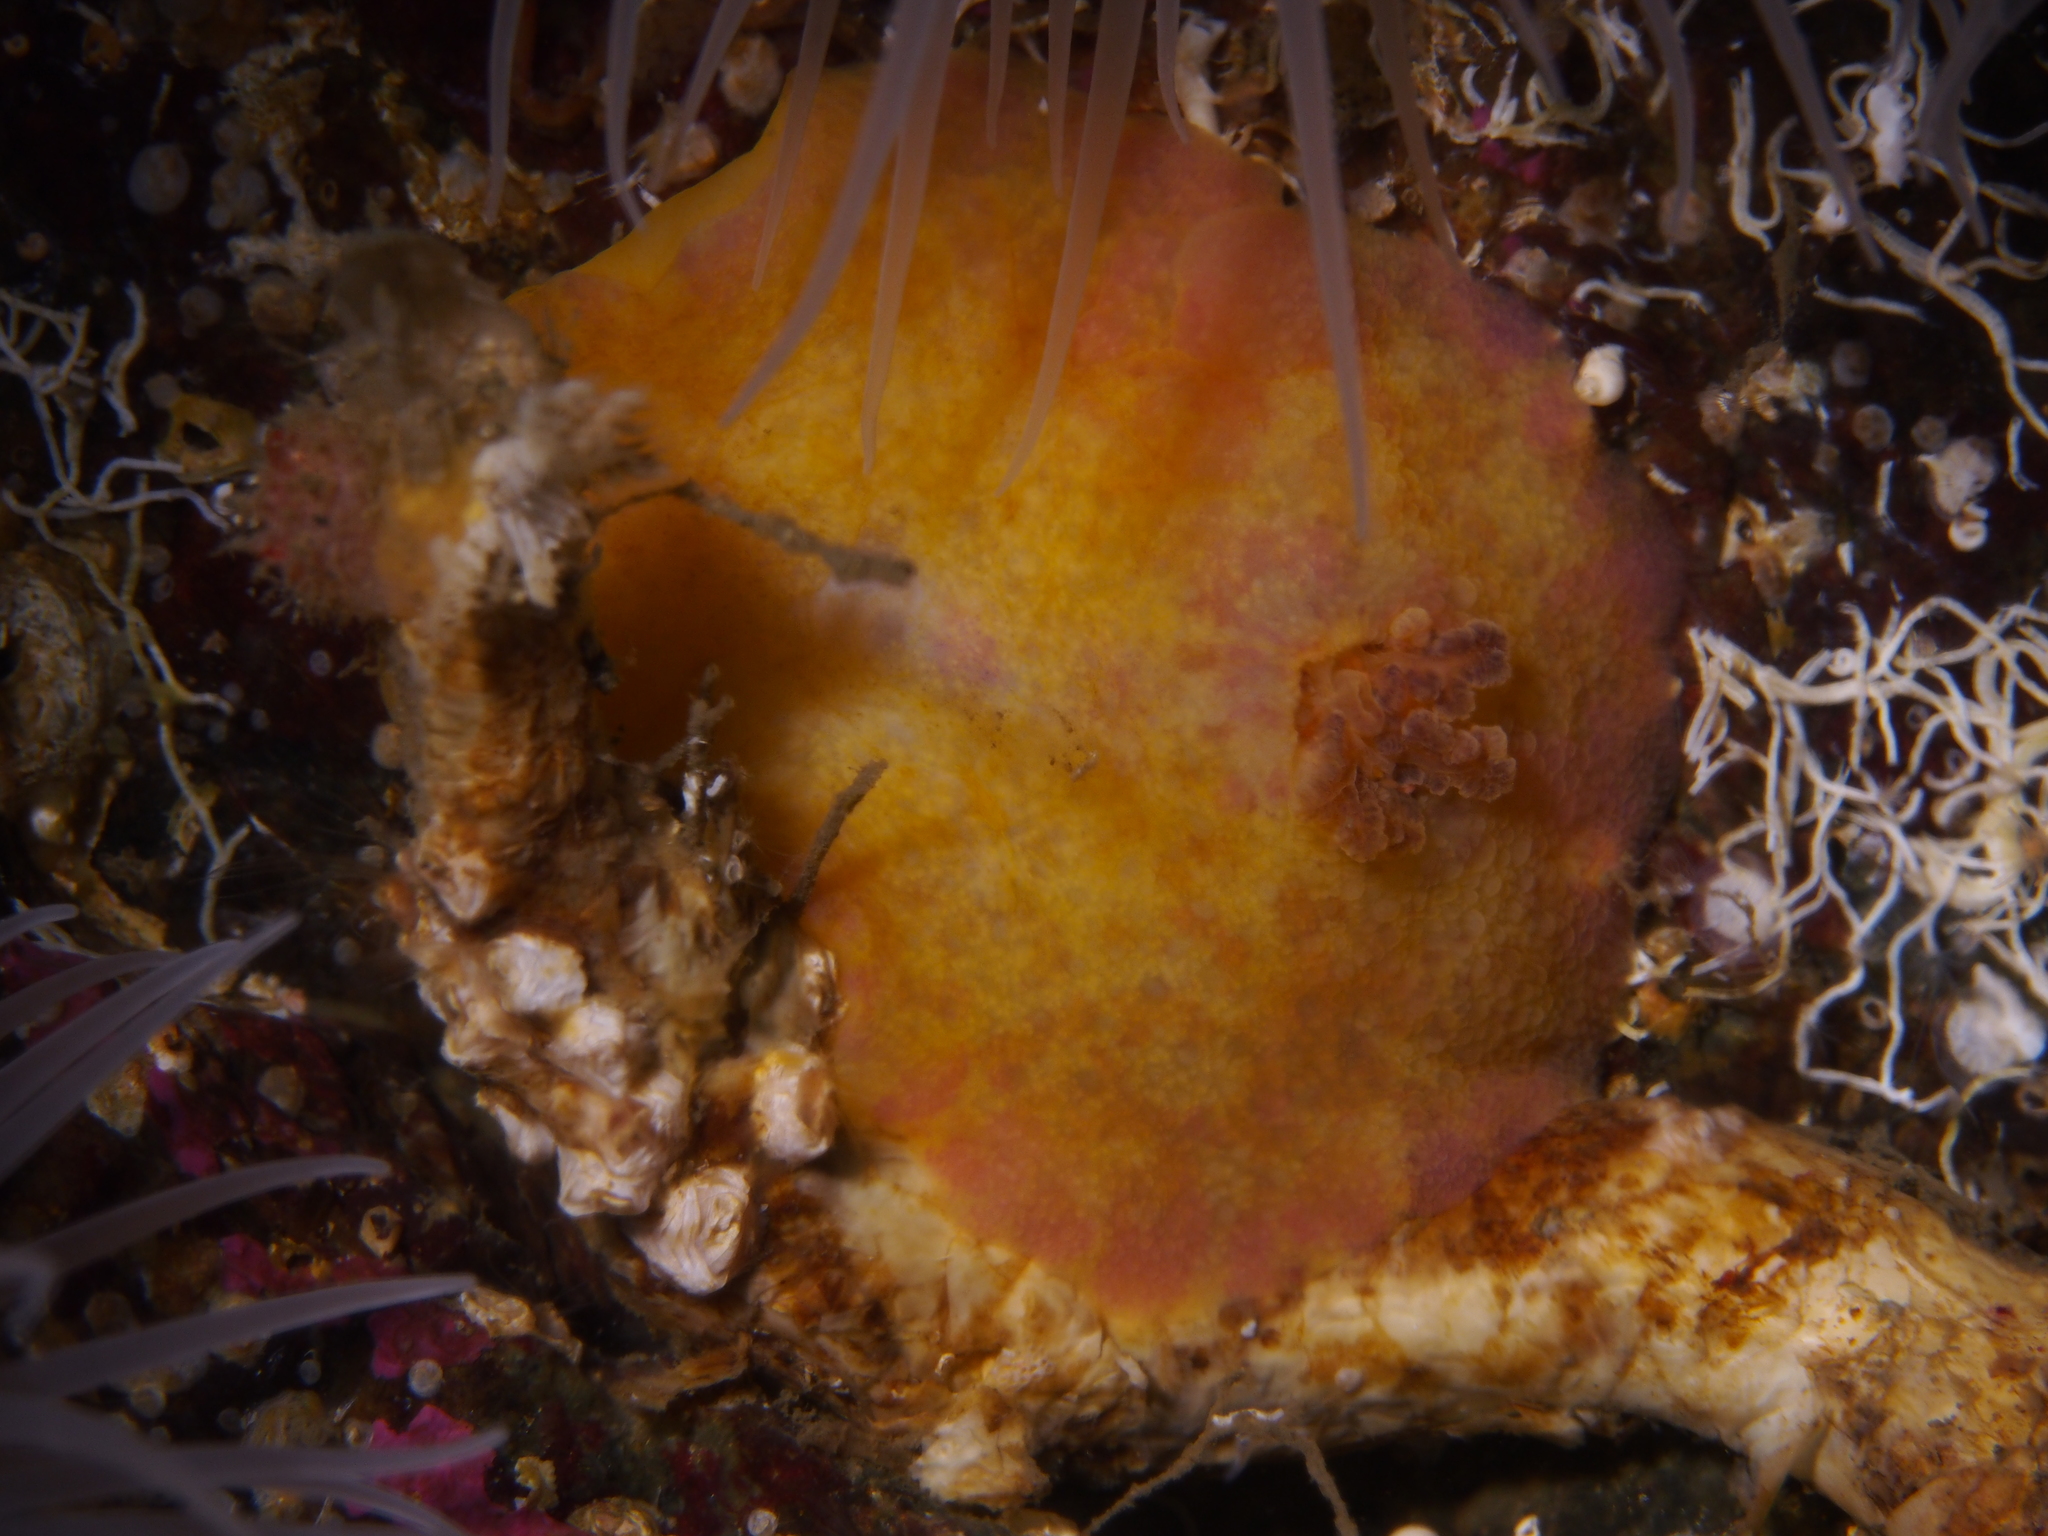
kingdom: Animalia
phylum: Mollusca
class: Gastropoda
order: Nudibranchia
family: Dorididae
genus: Doris
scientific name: Doris pseudoargus
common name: Sea lemon
